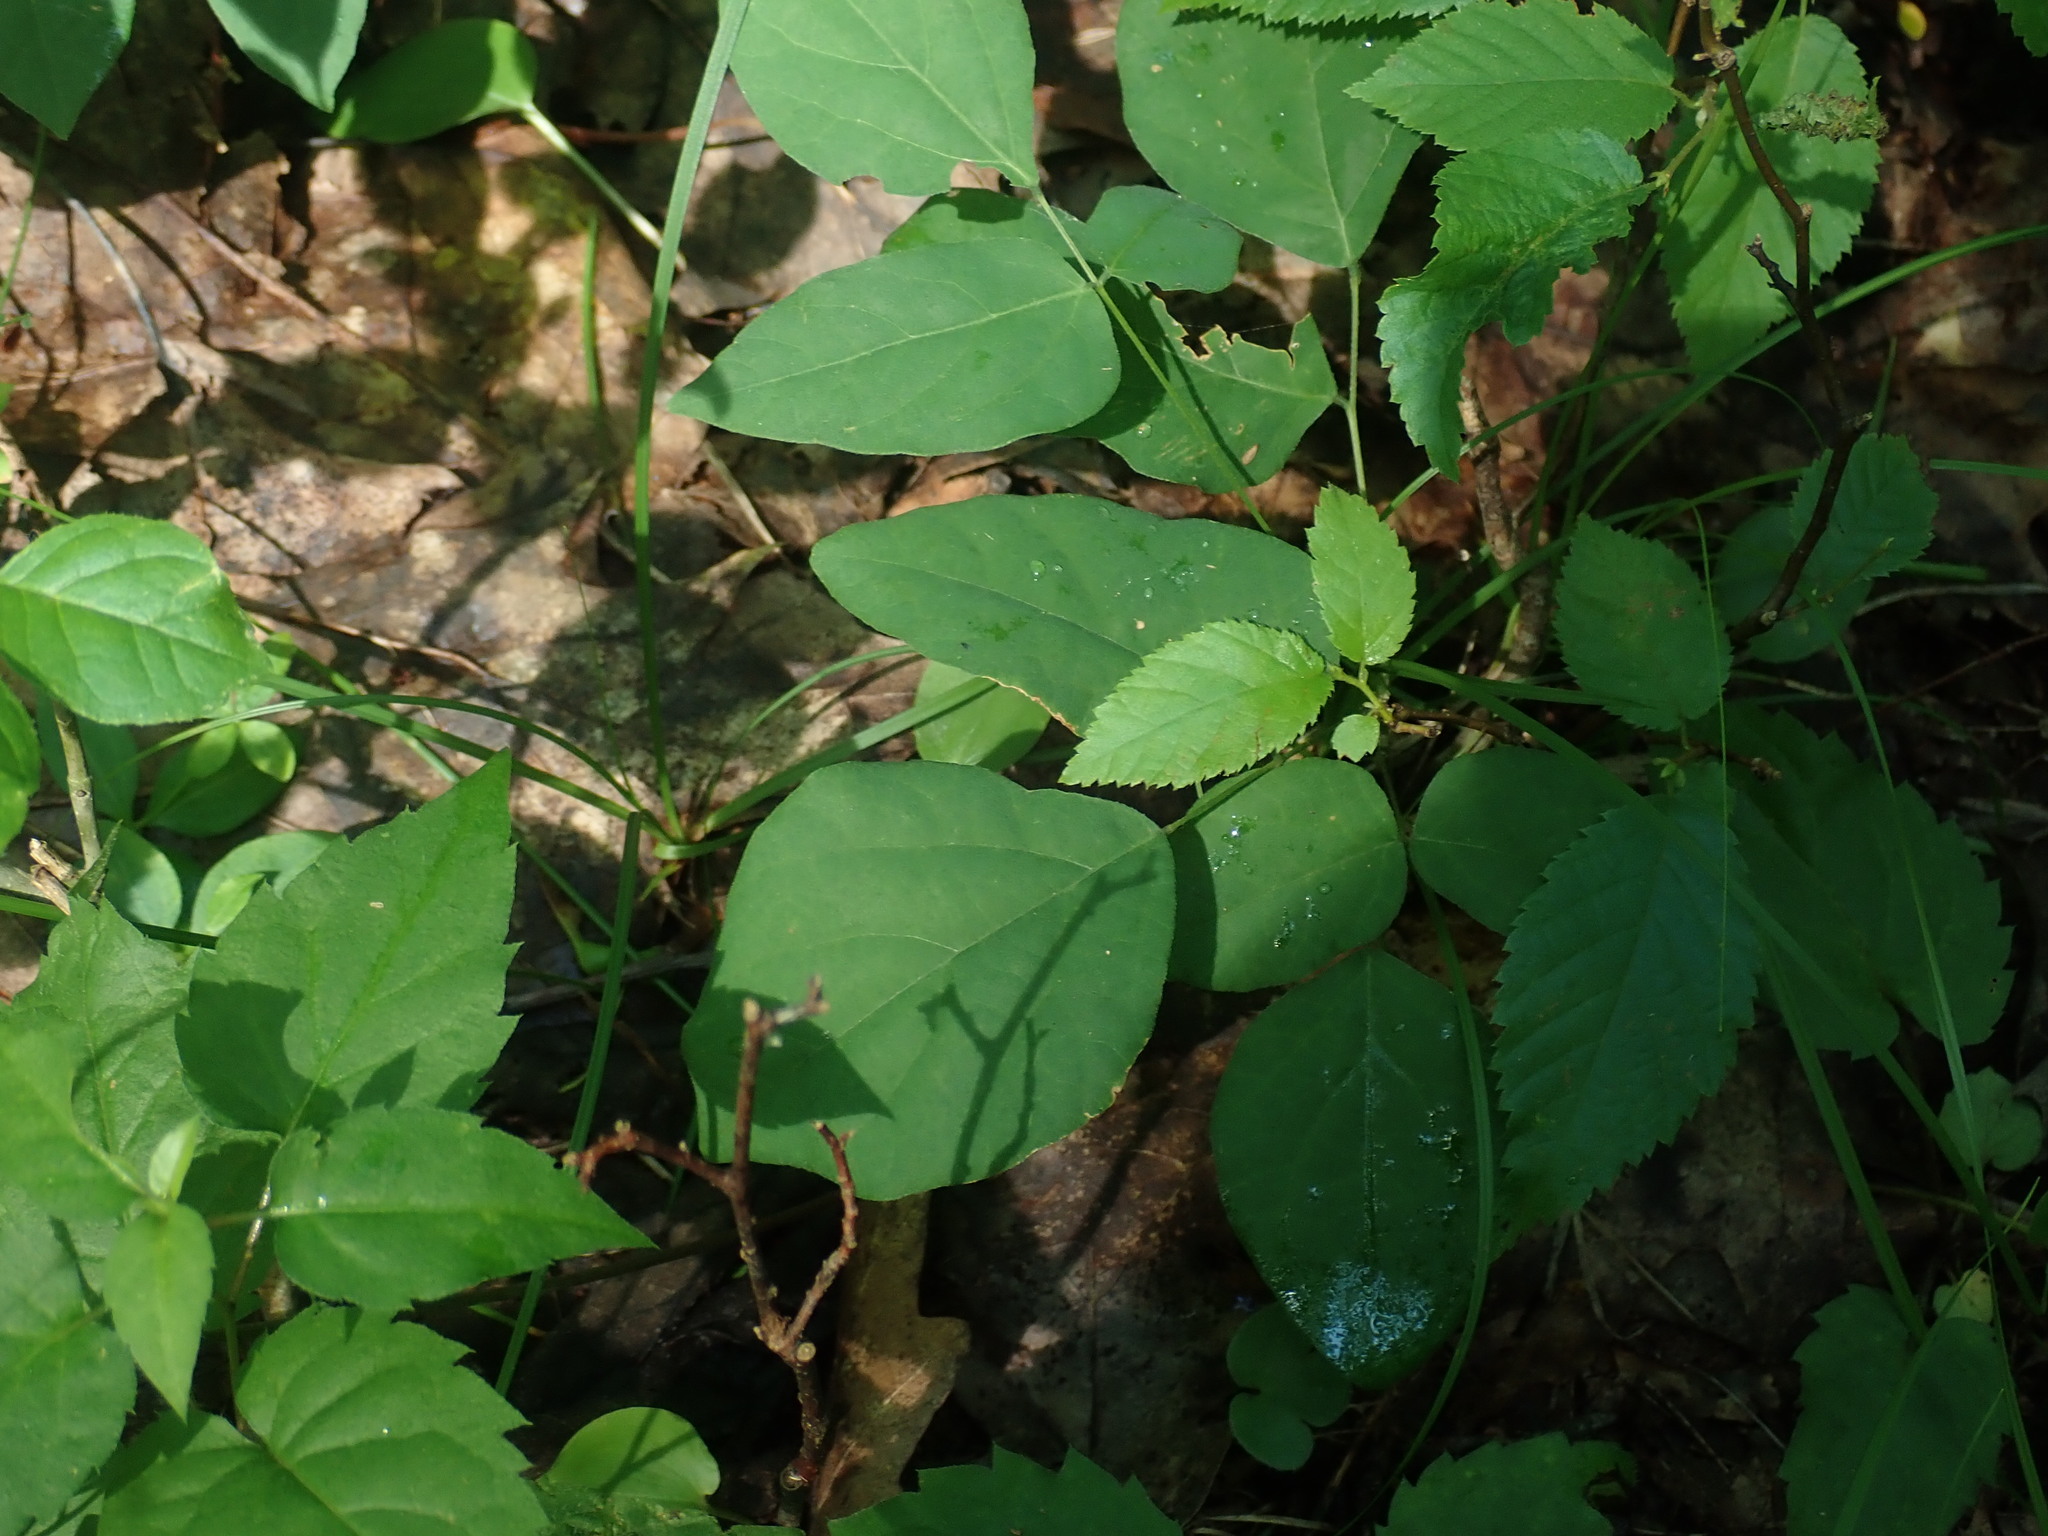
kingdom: Plantae
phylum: Tracheophyta
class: Magnoliopsida
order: Fabales
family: Fabaceae
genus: Hylodesmum
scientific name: Hylodesmum nudiflorum
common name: Bare-stemmed tick-trefoil
